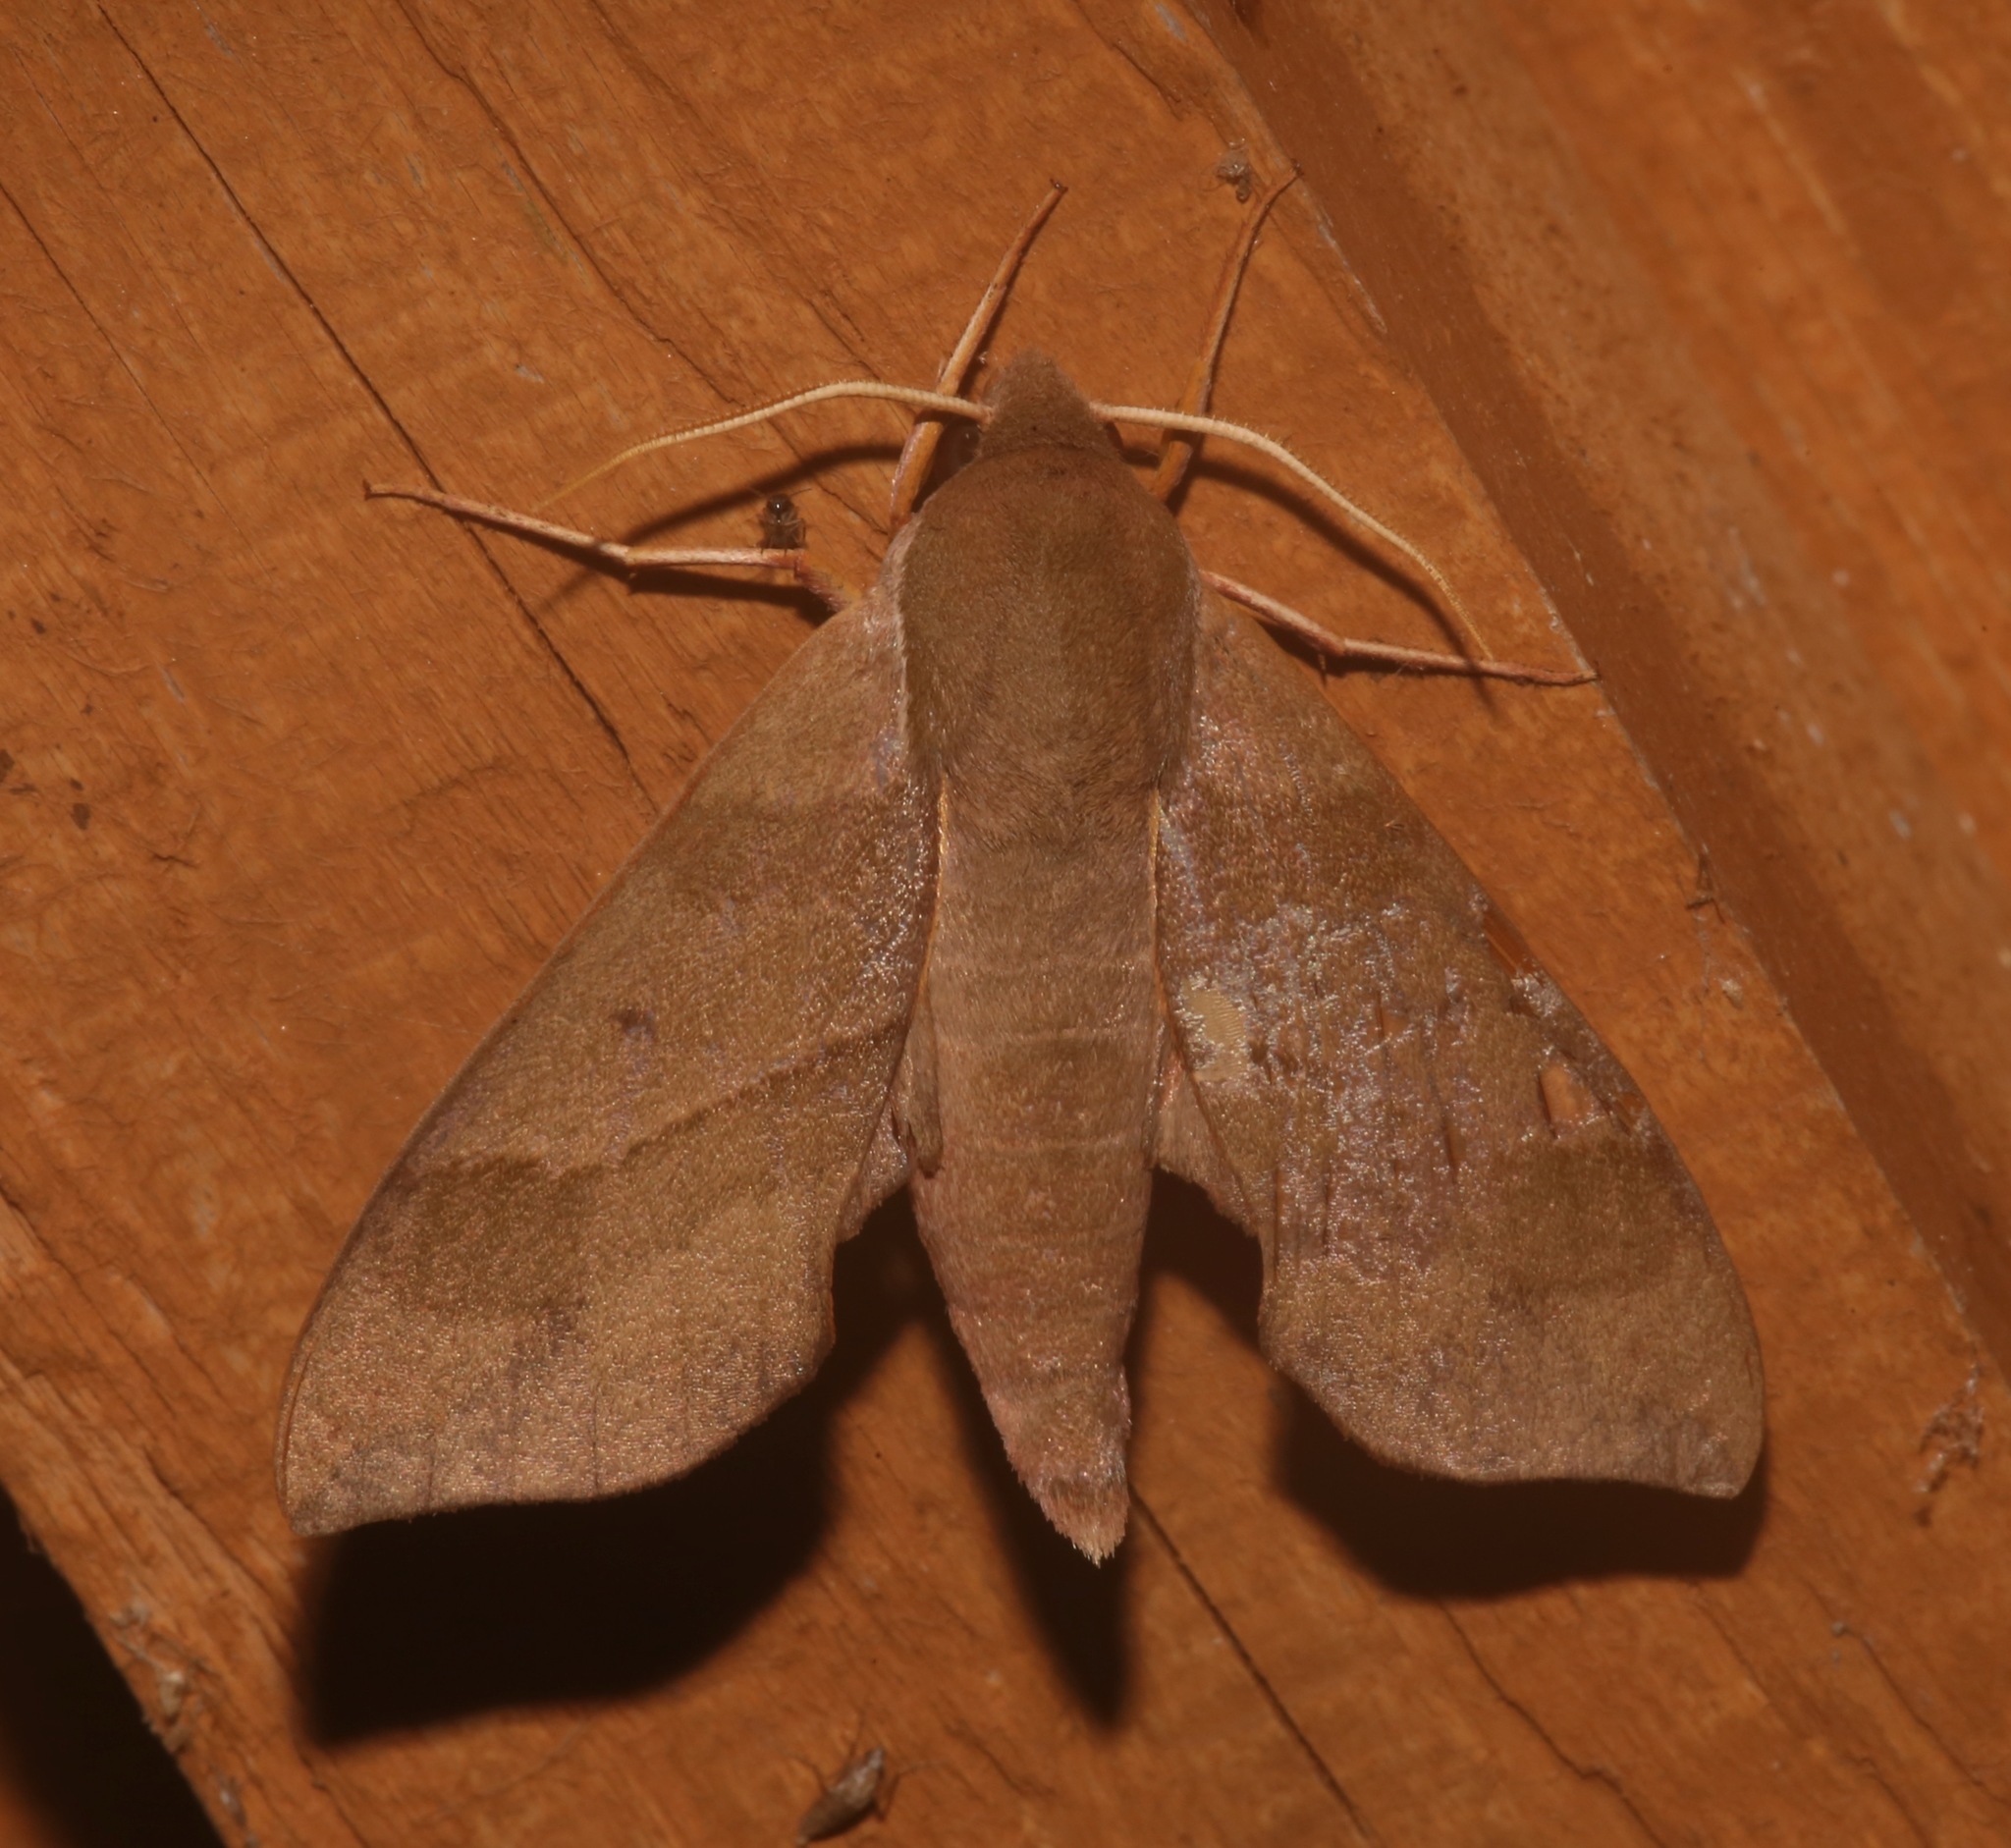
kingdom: Animalia
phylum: Arthropoda
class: Insecta
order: Lepidoptera
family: Sphingidae
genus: Darapsa
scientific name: Darapsa myron
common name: Hog sphinx
